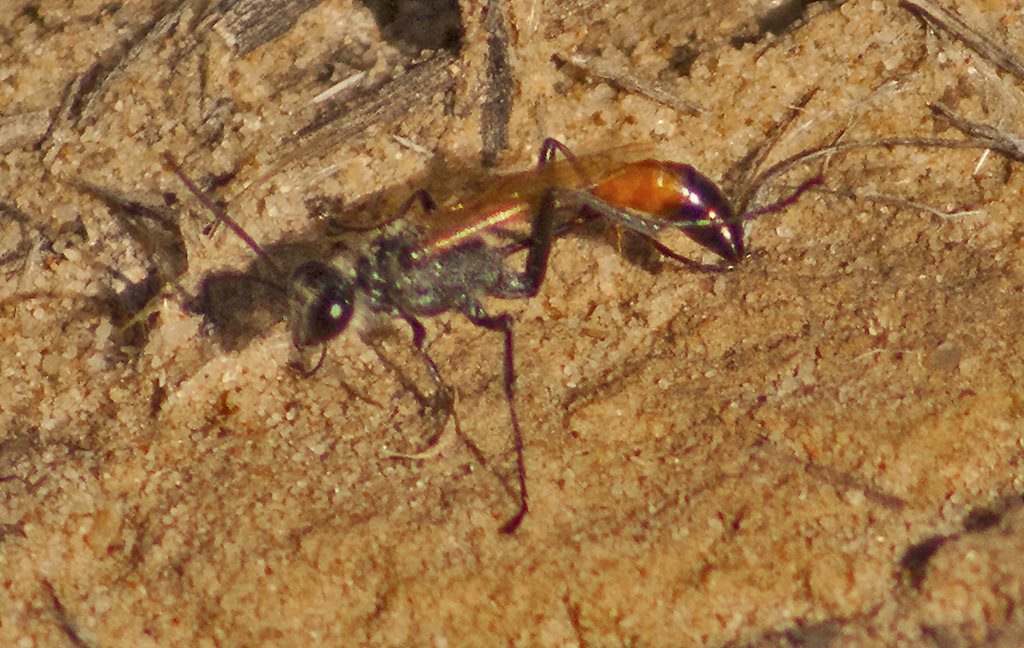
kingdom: Animalia
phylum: Arthropoda
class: Insecta
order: Hymenoptera
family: Sphecidae
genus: Podalonia
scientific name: Podalonia tydei
